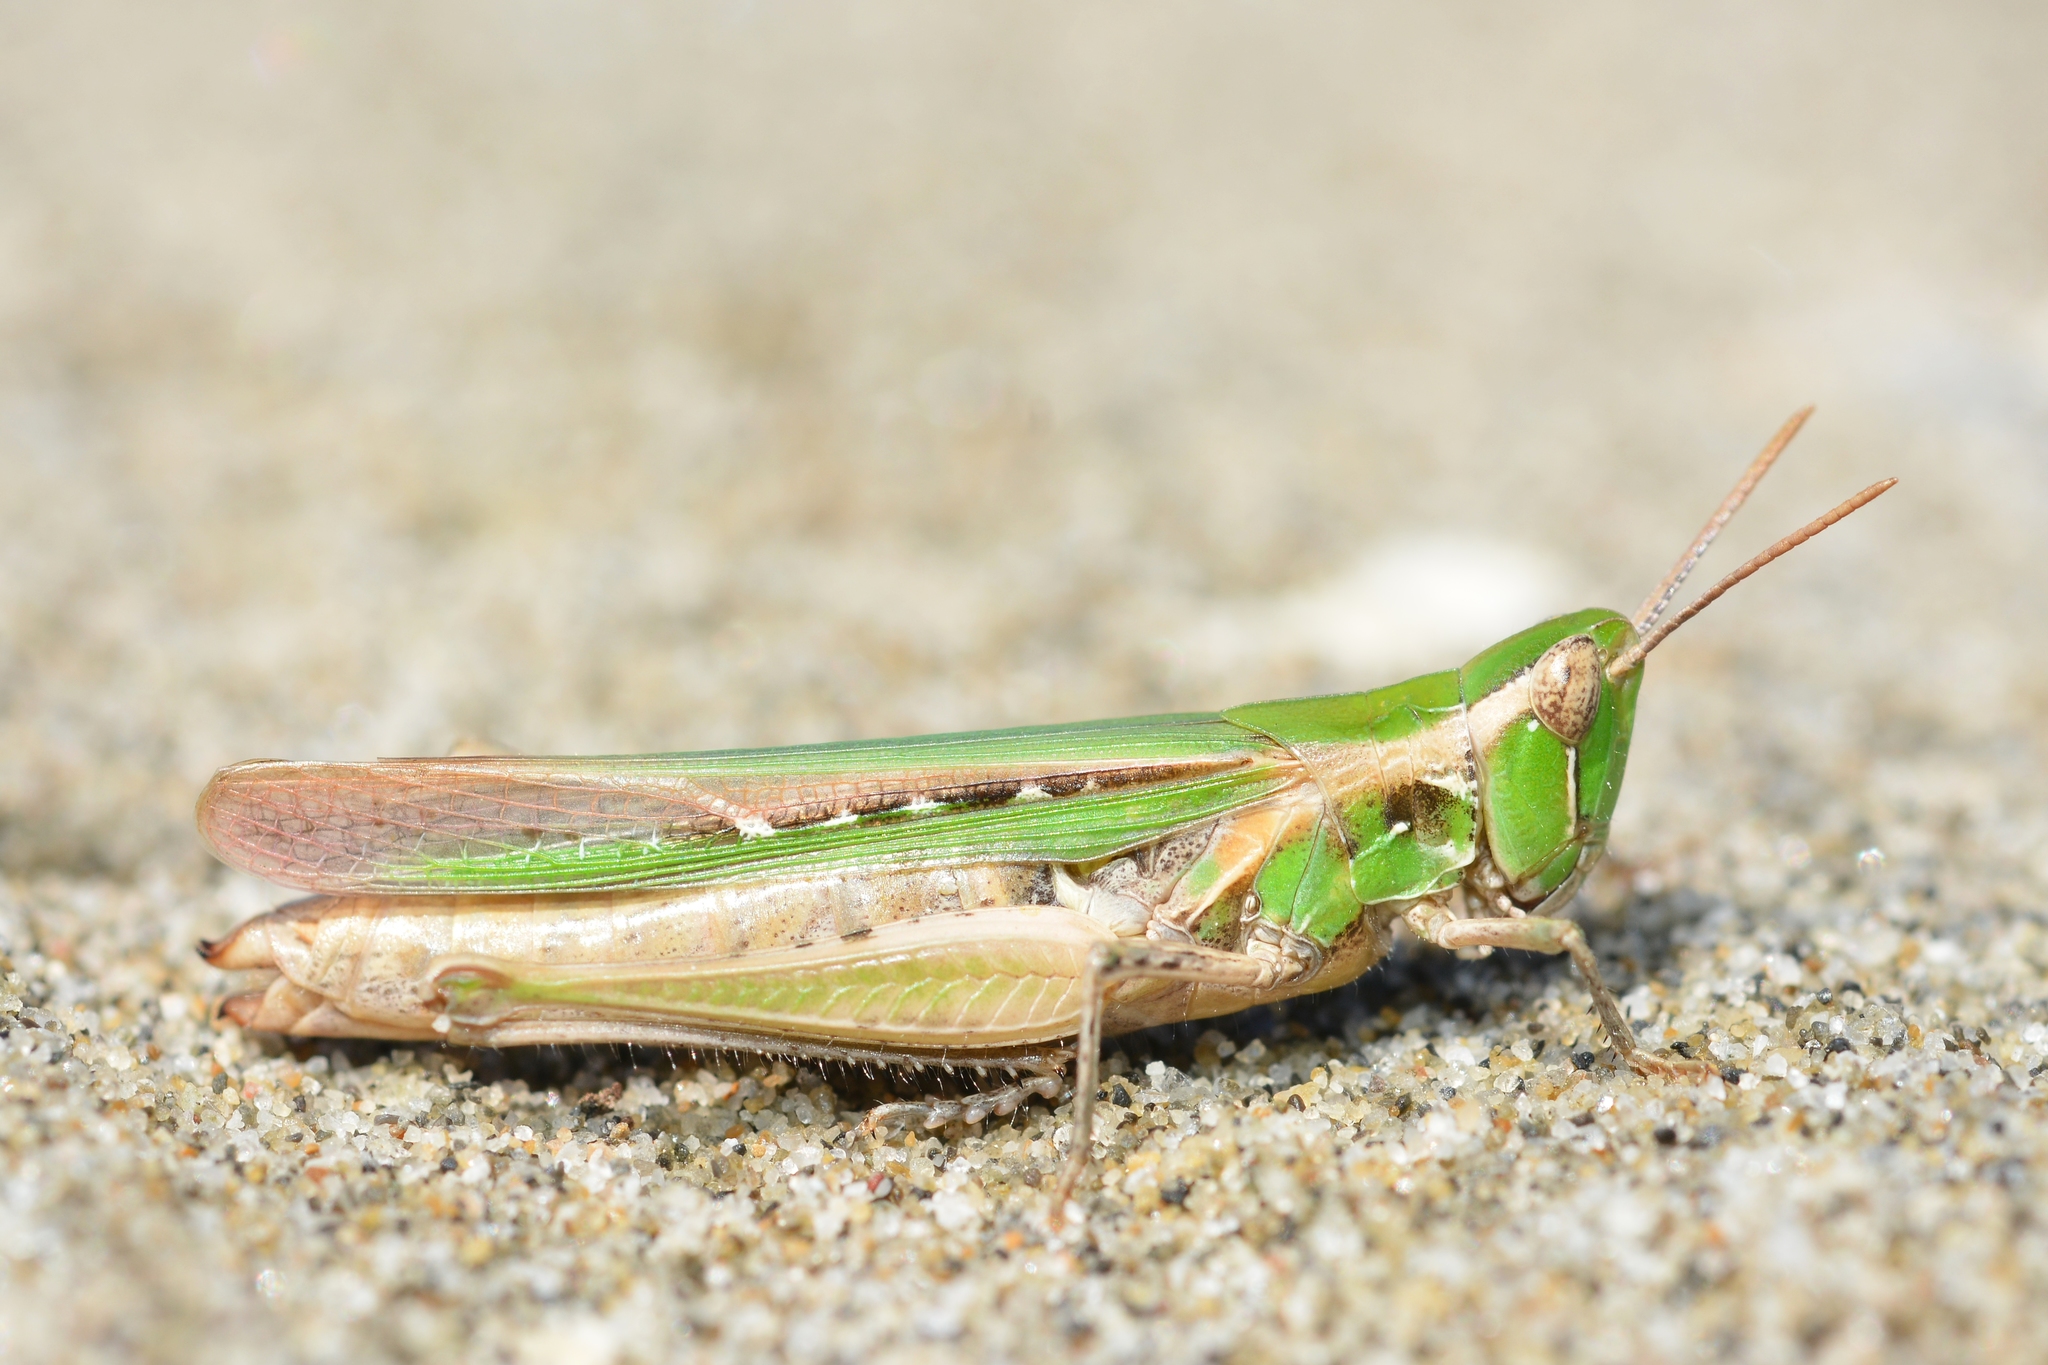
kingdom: Animalia
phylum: Arthropoda
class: Insecta
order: Orthoptera
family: Acrididae
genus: Calephorus
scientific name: Calephorus compressicornis
